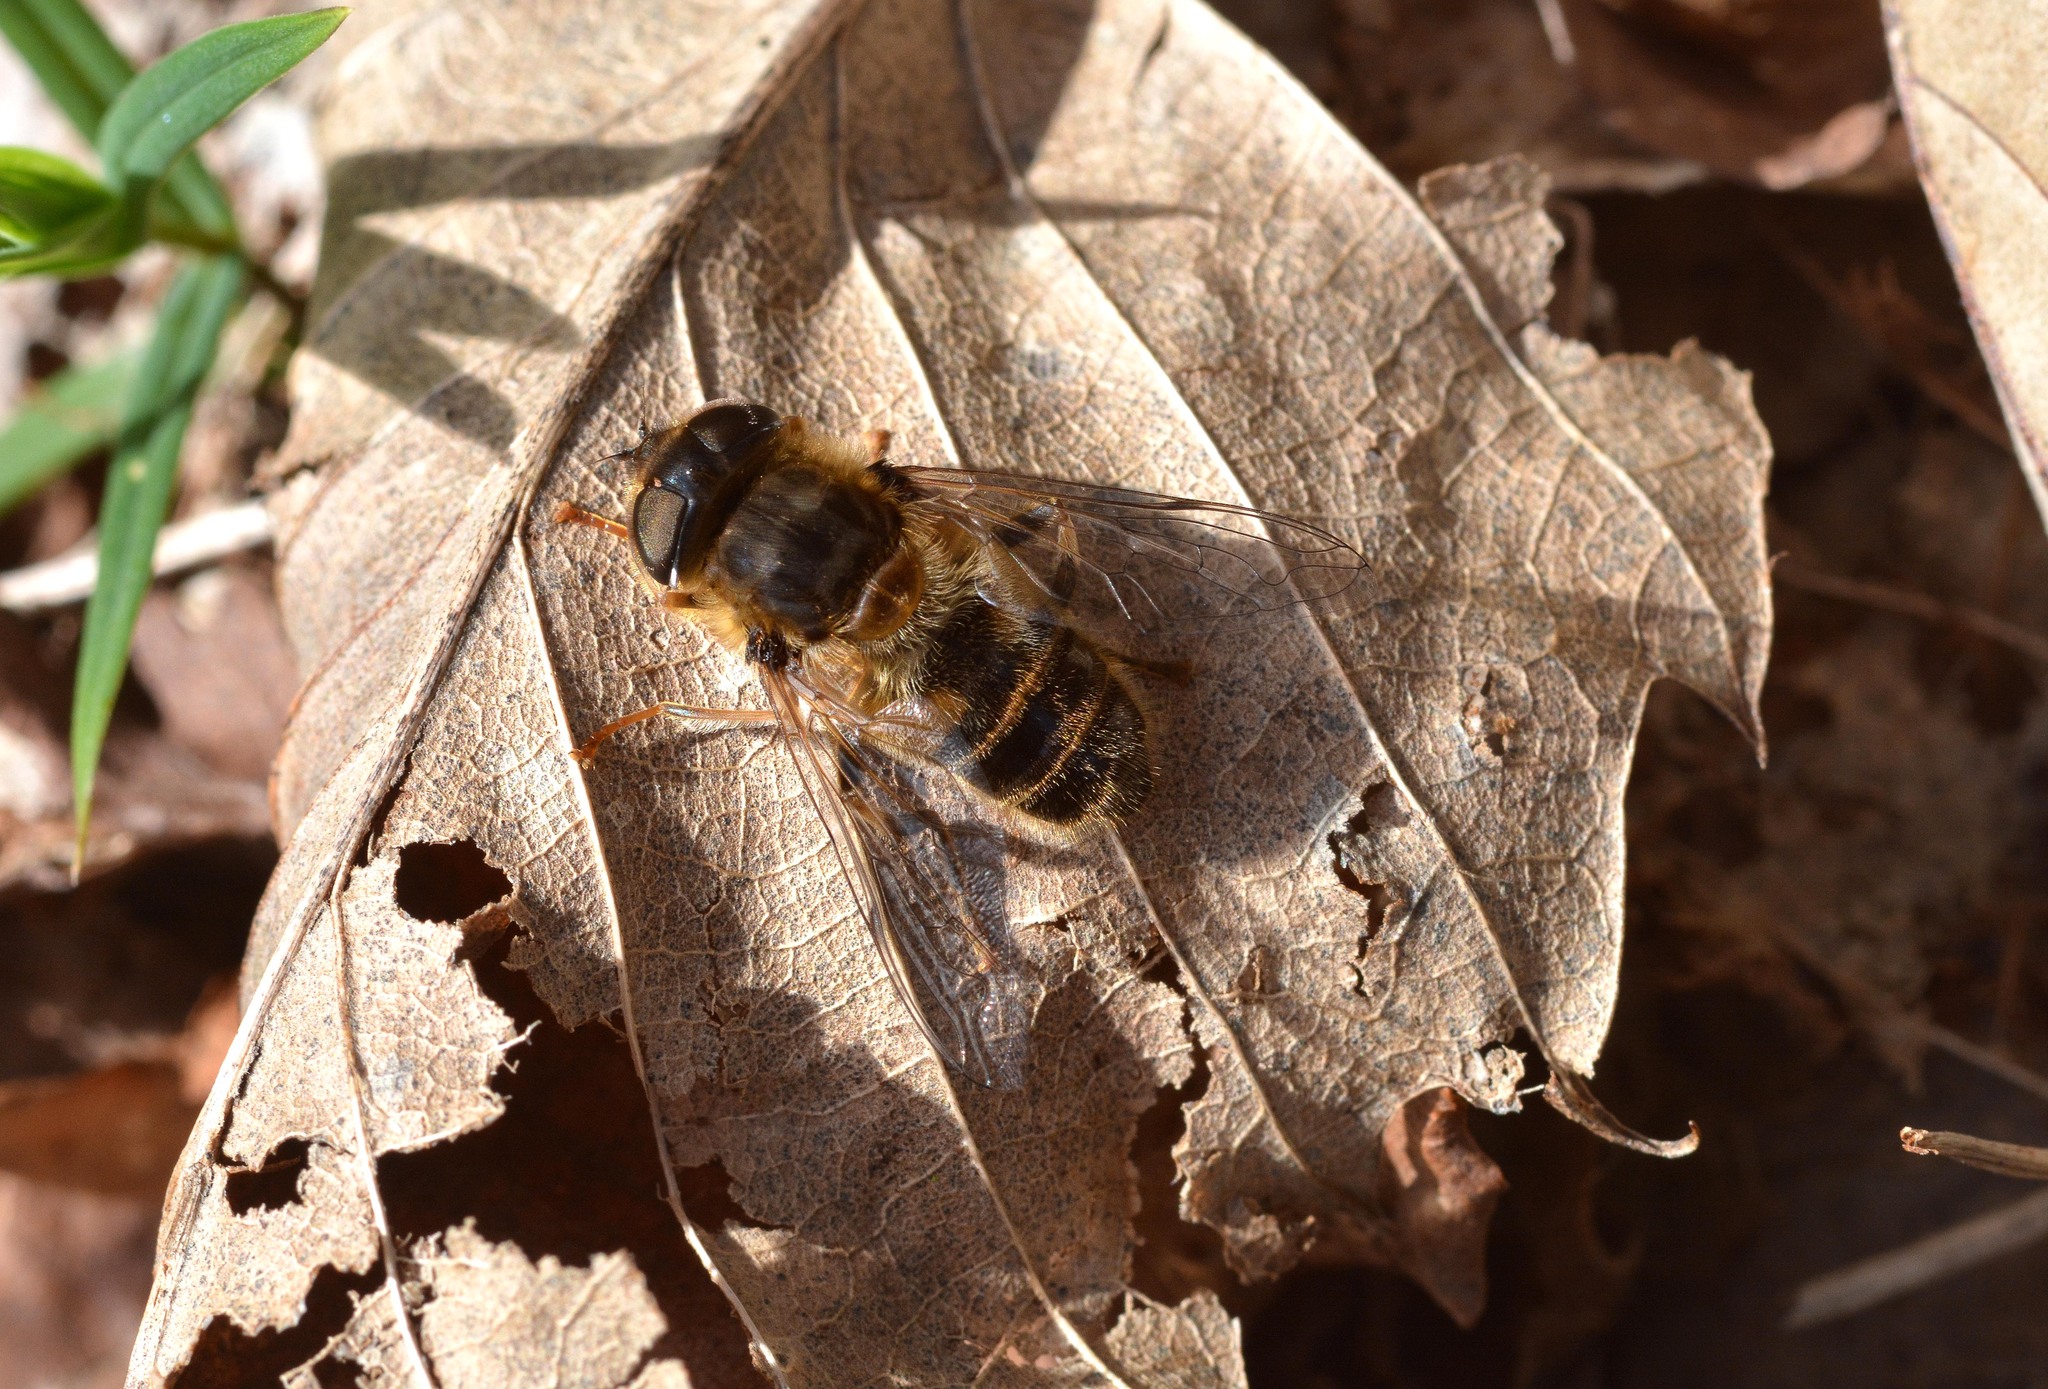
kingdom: Animalia
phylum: Arthropoda
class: Insecta
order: Diptera
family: Syrphidae
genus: Eristalis
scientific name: Eristalis pertinax
